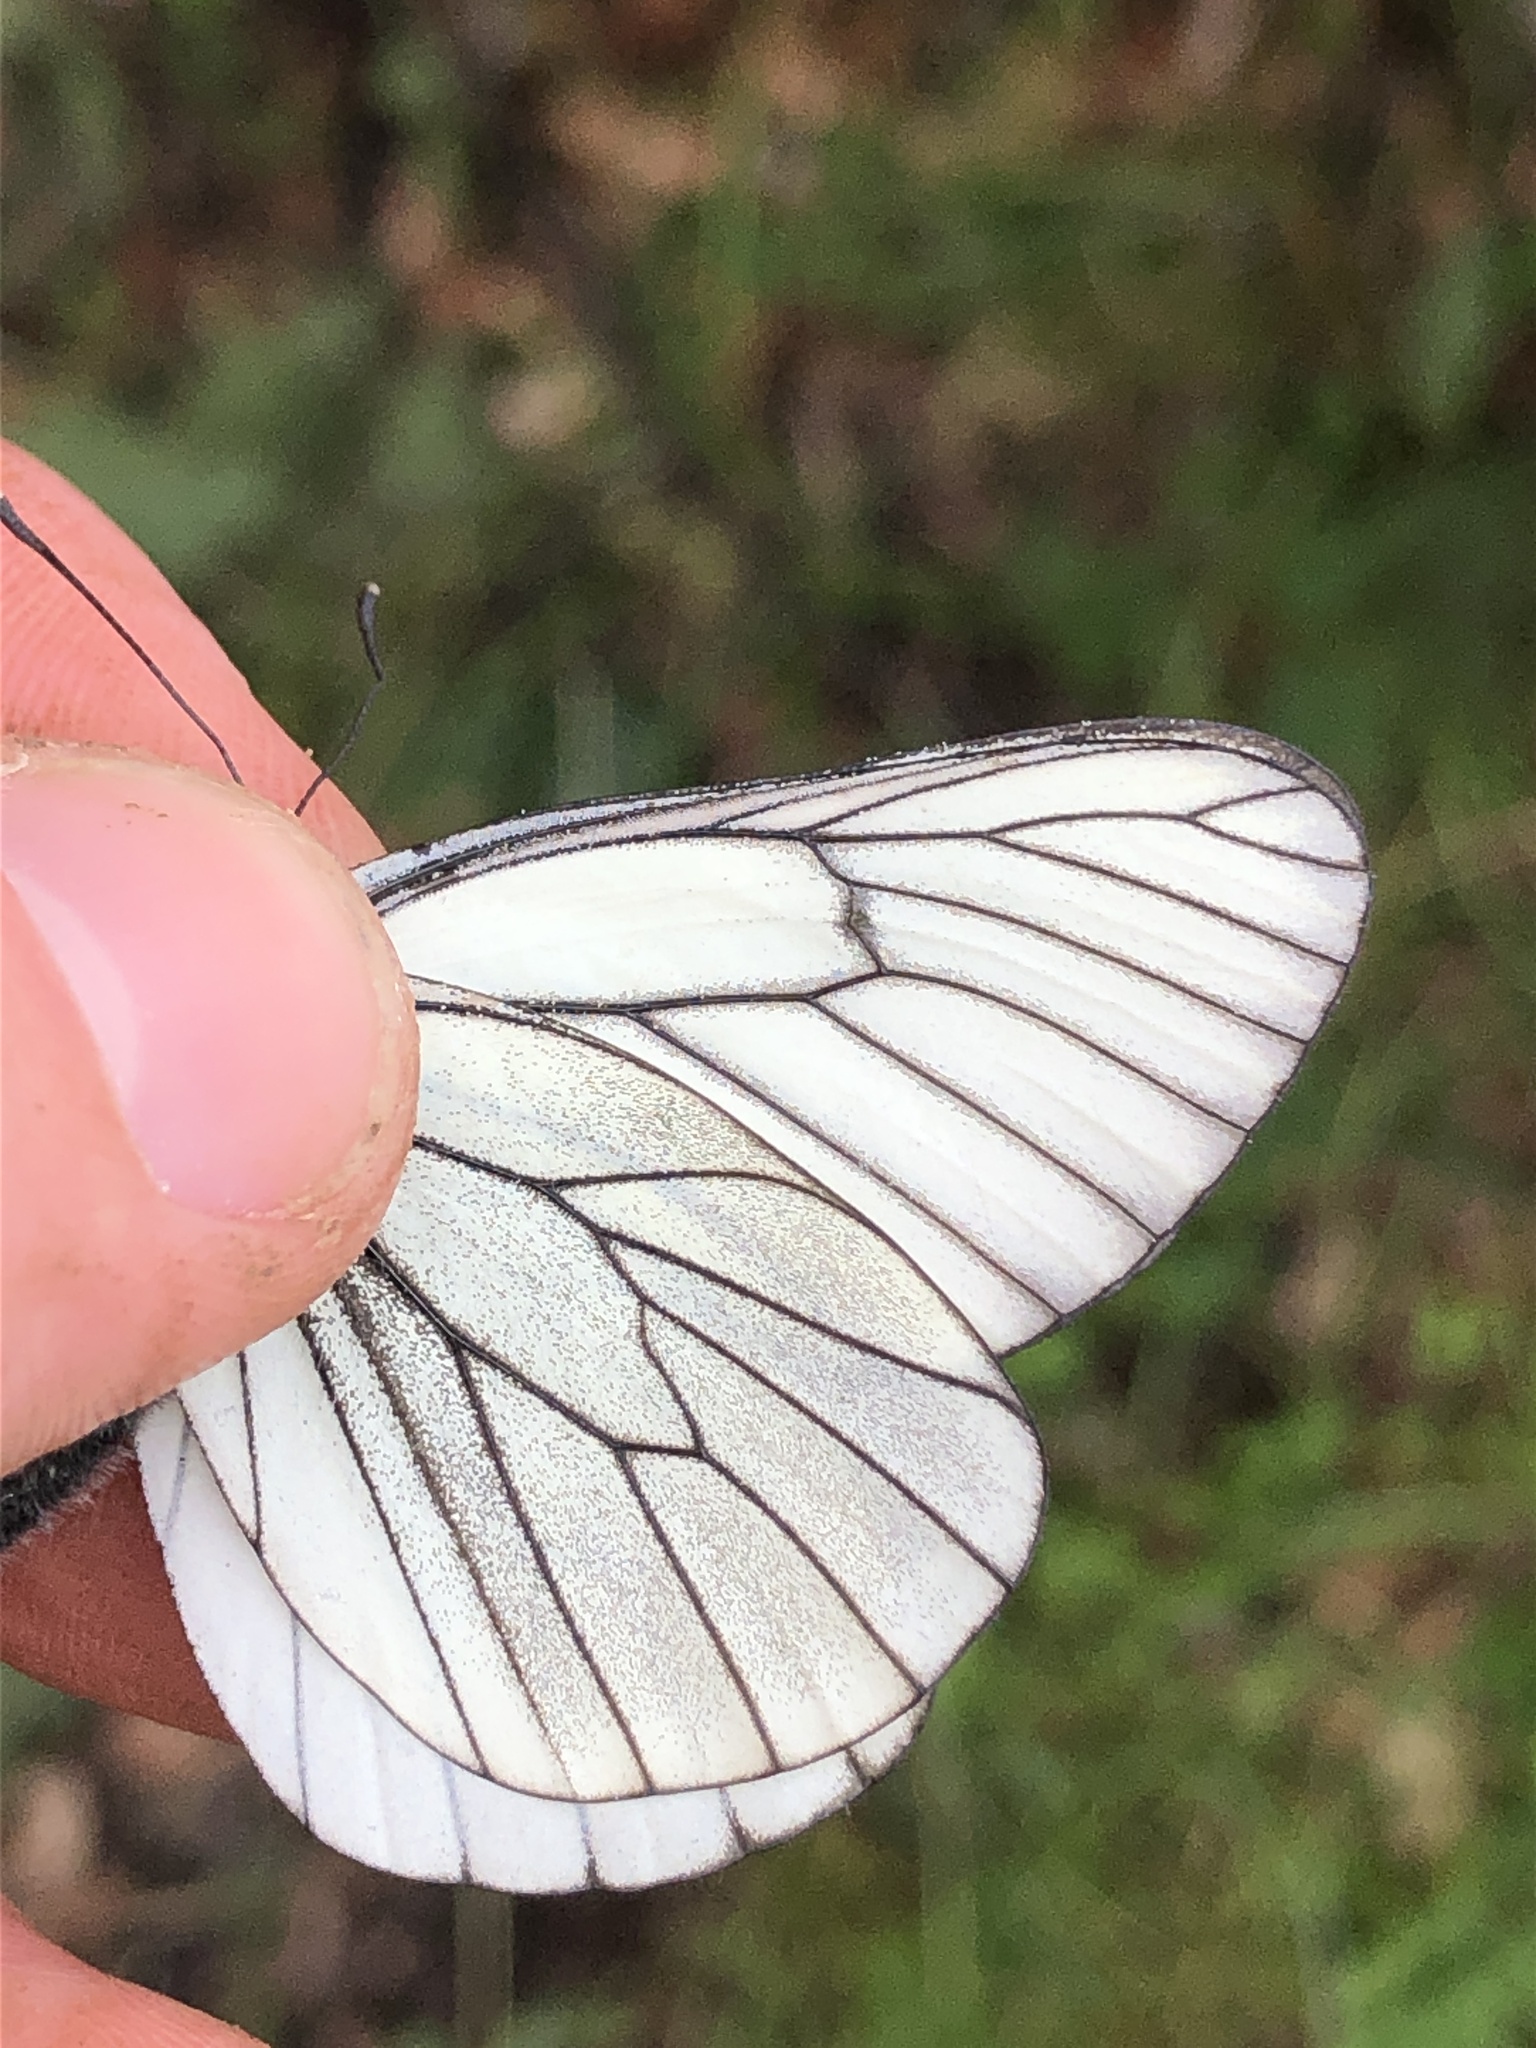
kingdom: Animalia
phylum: Arthropoda
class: Insecta
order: Lepidoptera
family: Pieridae
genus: Aporia
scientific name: Aporia crataegi
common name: Black-veined white
